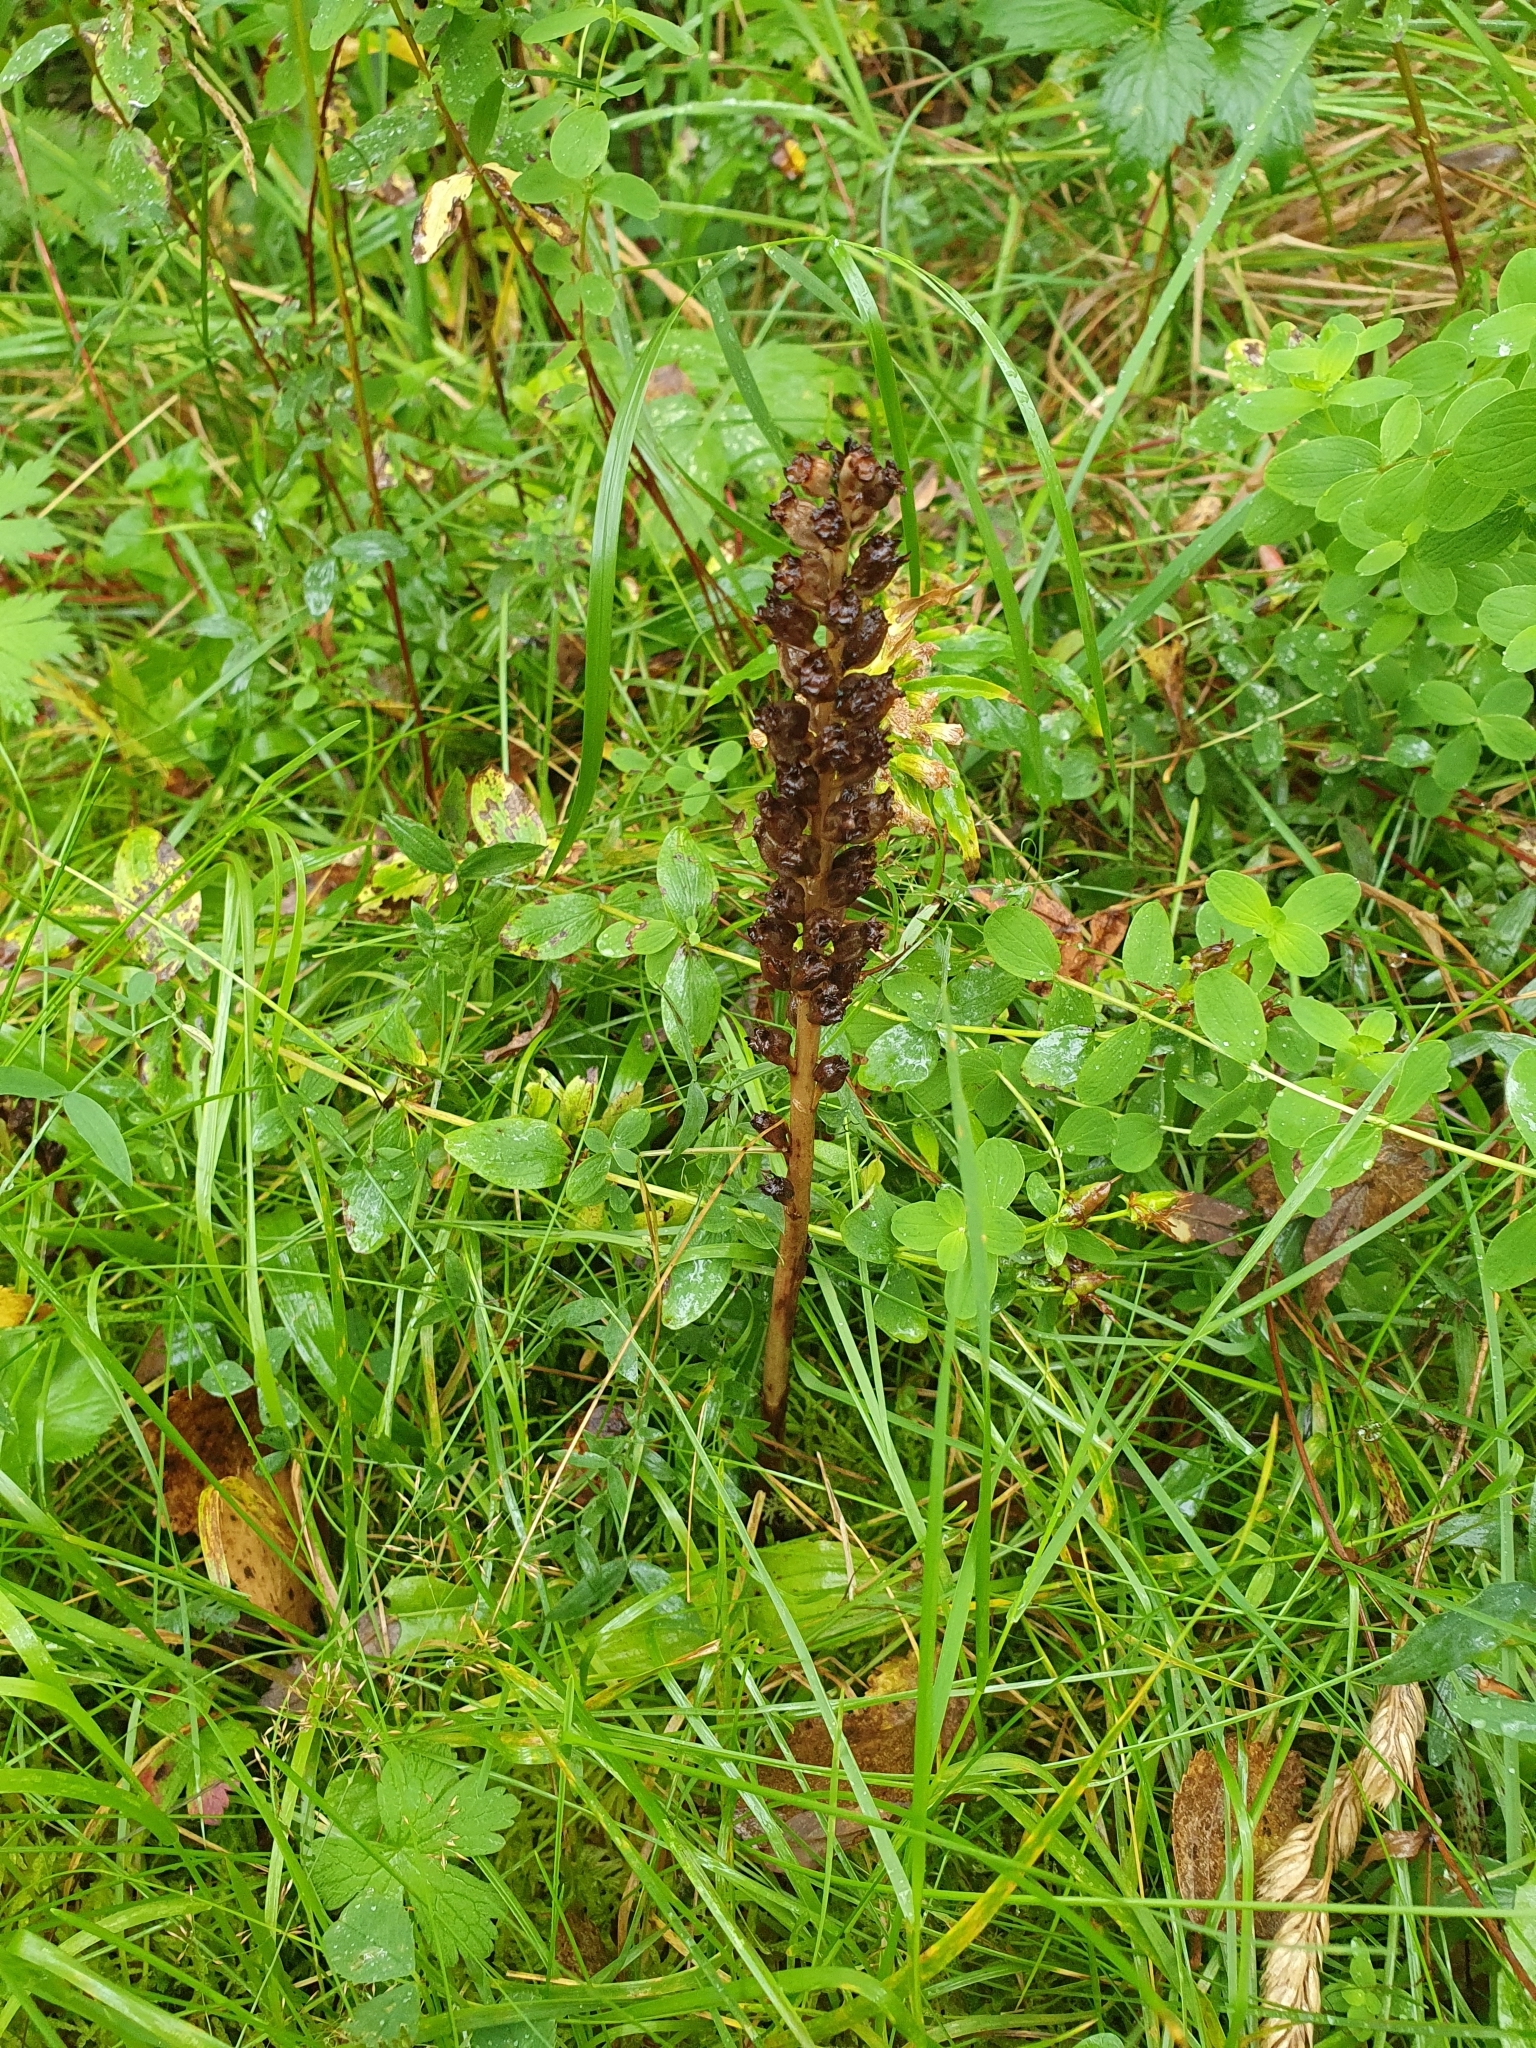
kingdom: Plantae
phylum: Tracheophyta
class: Liliopsida
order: Asparagales
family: Orchidaceae
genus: Neottia
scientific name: Neottia nidus-avis
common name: Bird's-nest orchid
